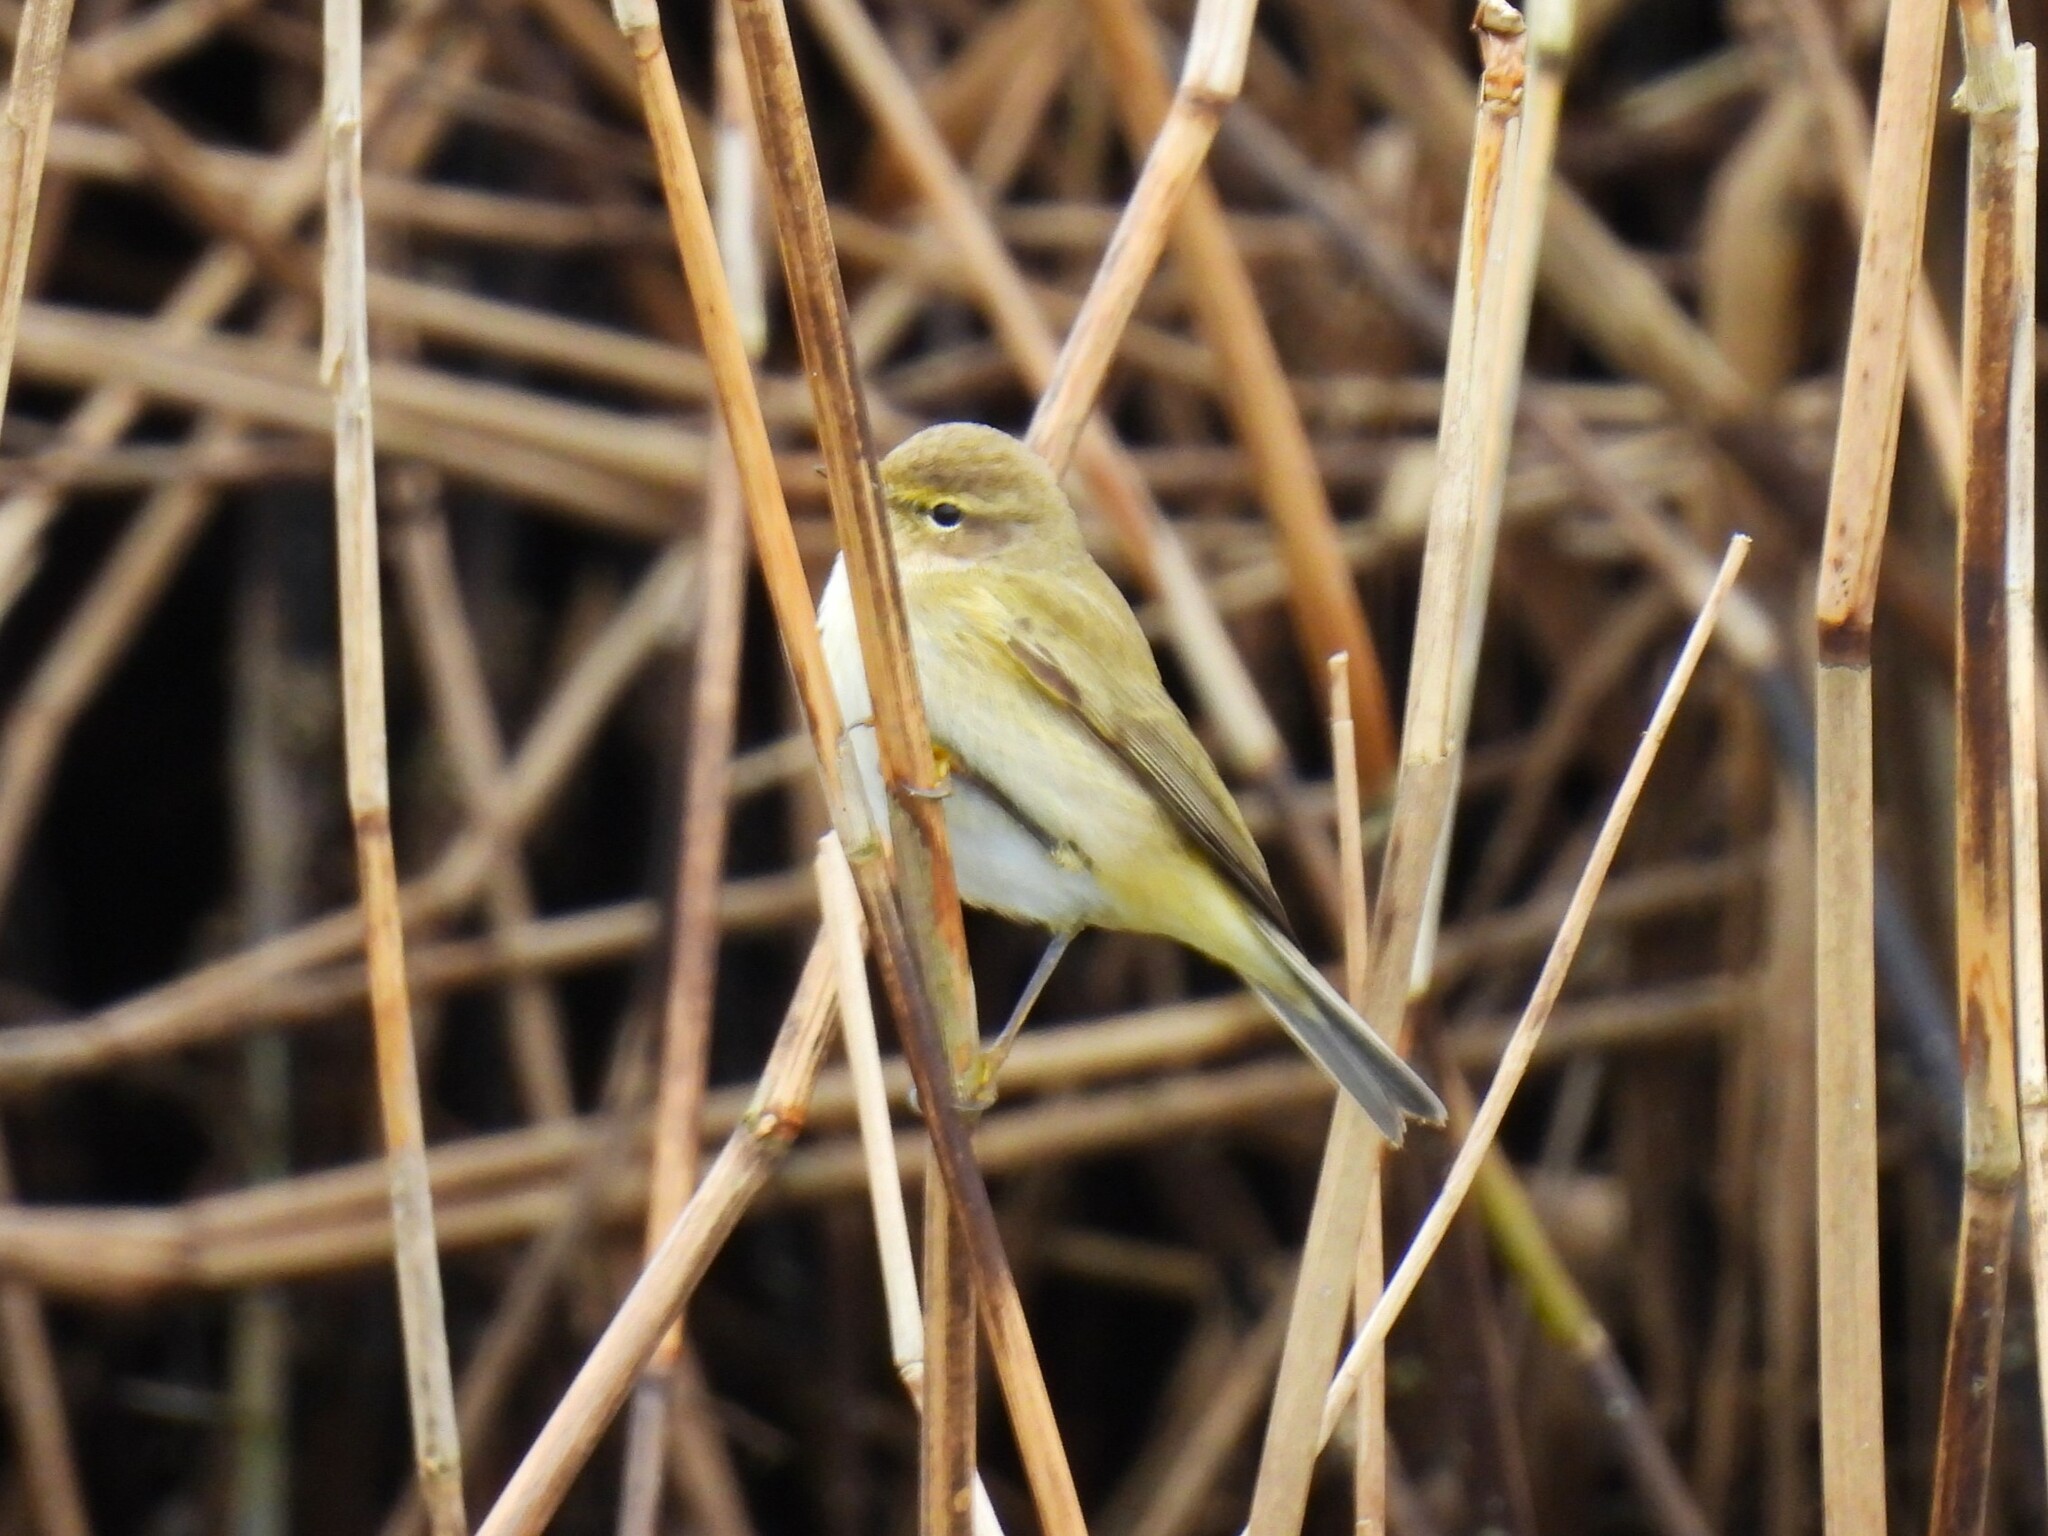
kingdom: Animalia
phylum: Chordata
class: Aves
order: Passeriformes
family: Phylloscopidae
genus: Phylloscopus
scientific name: Phylloscopus collybita
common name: Common chiffchaff
